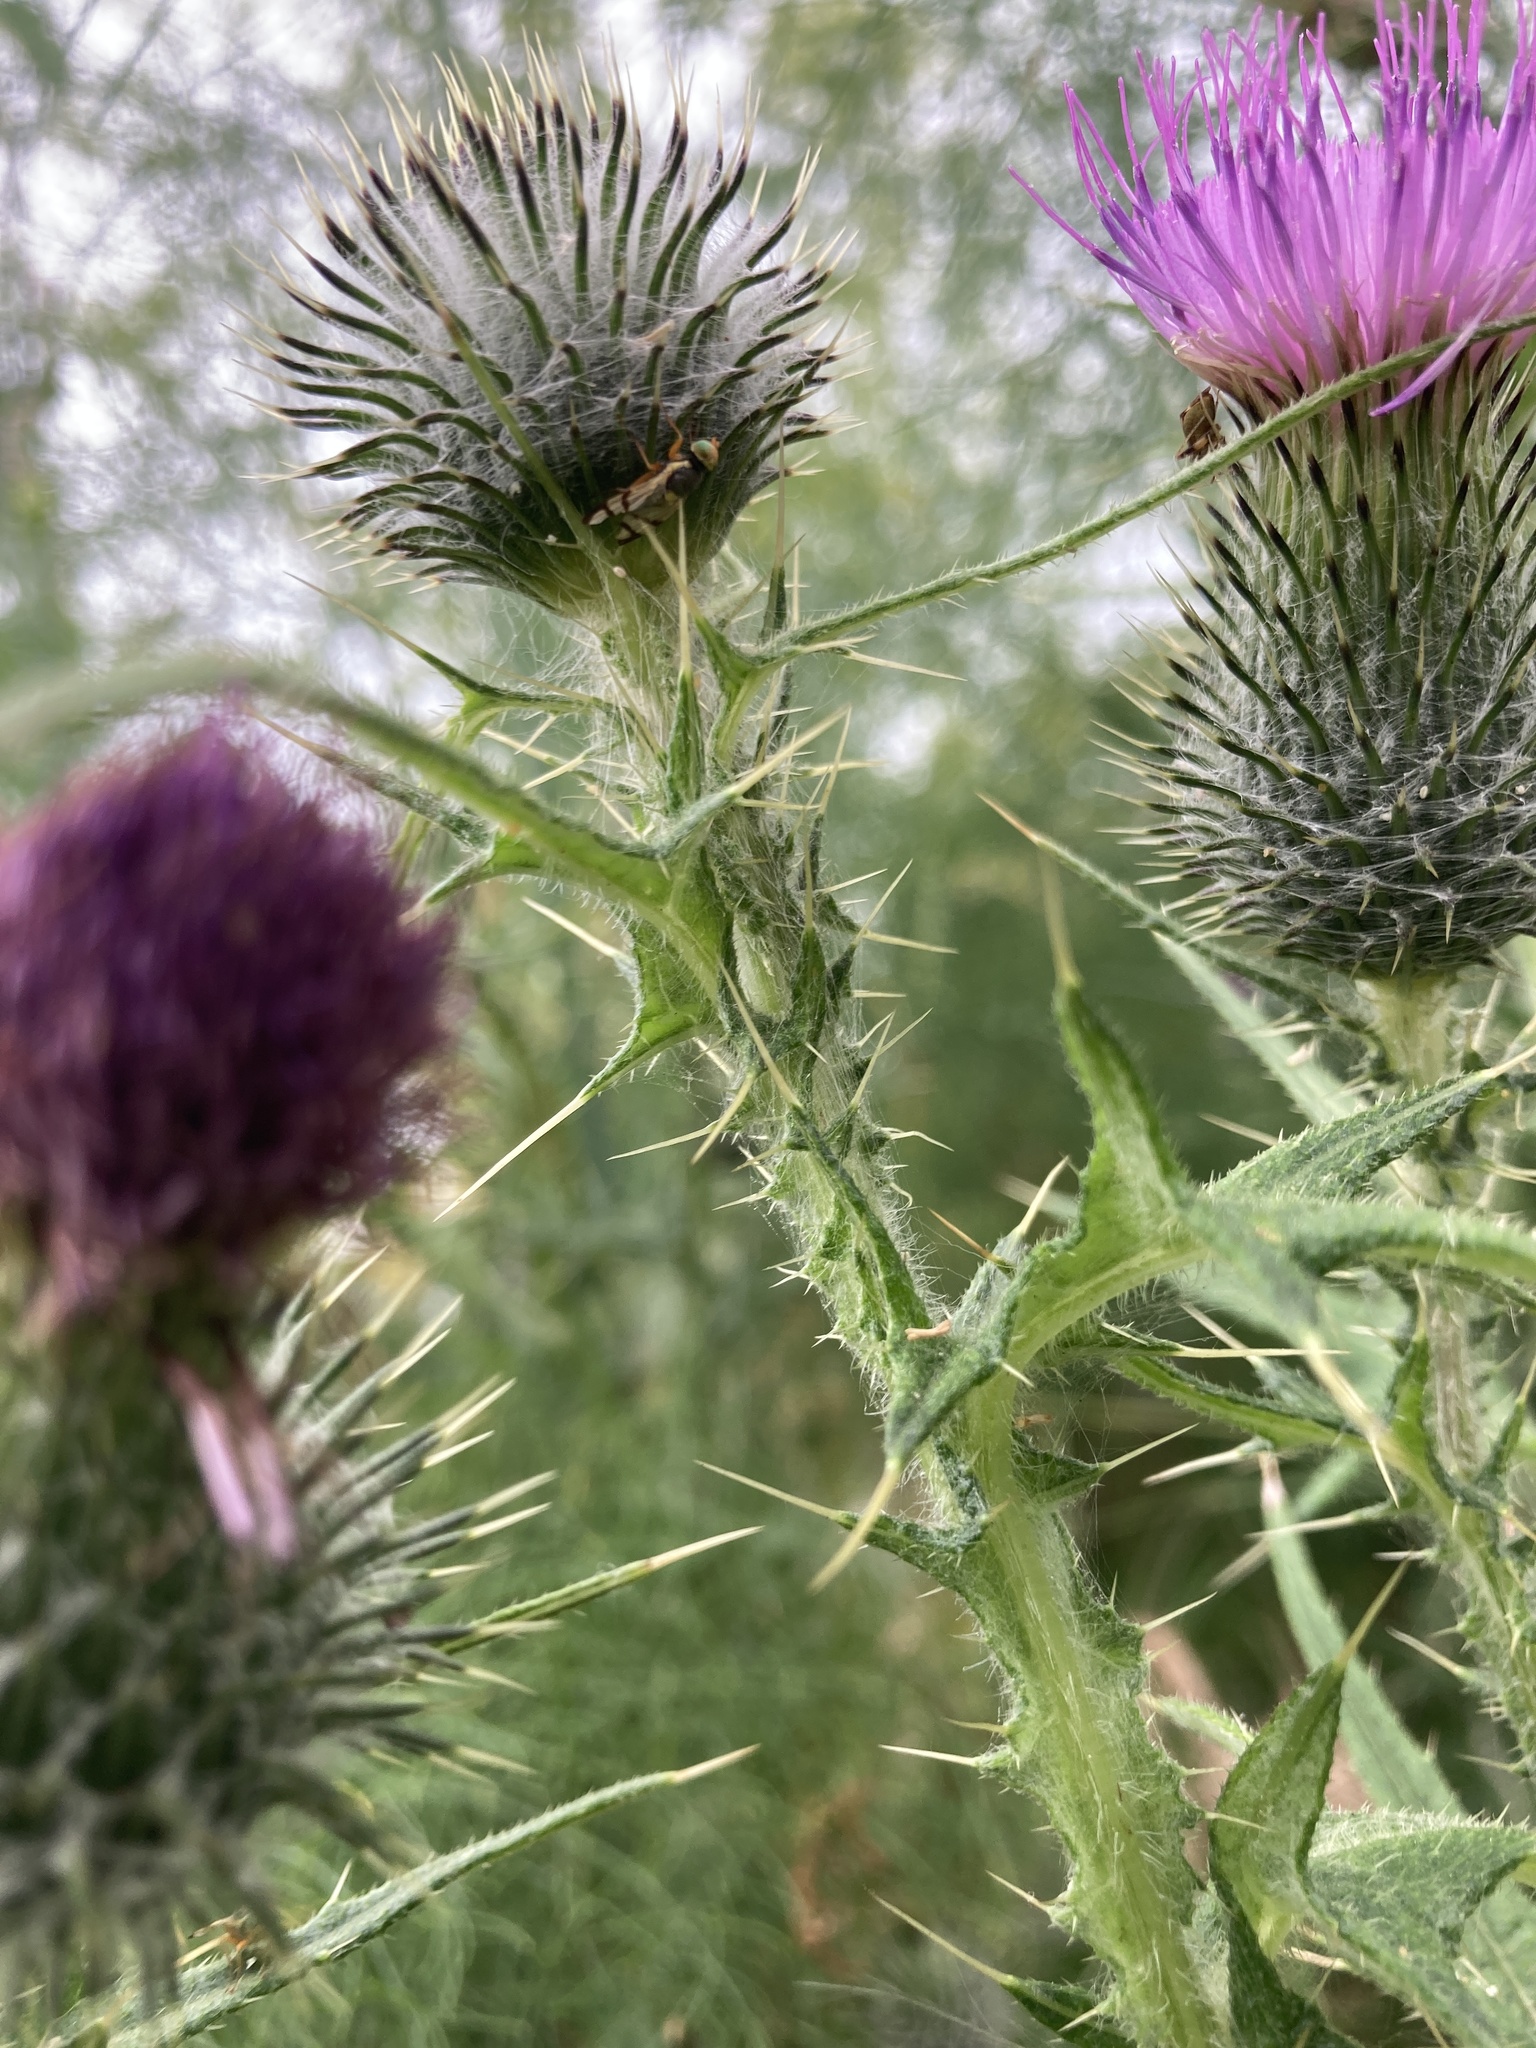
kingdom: Animalia
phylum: Arthropoda
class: Insecta
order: Diptera
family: Tephritidae
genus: Urophora
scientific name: Urophora stylata
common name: Fruit fly
